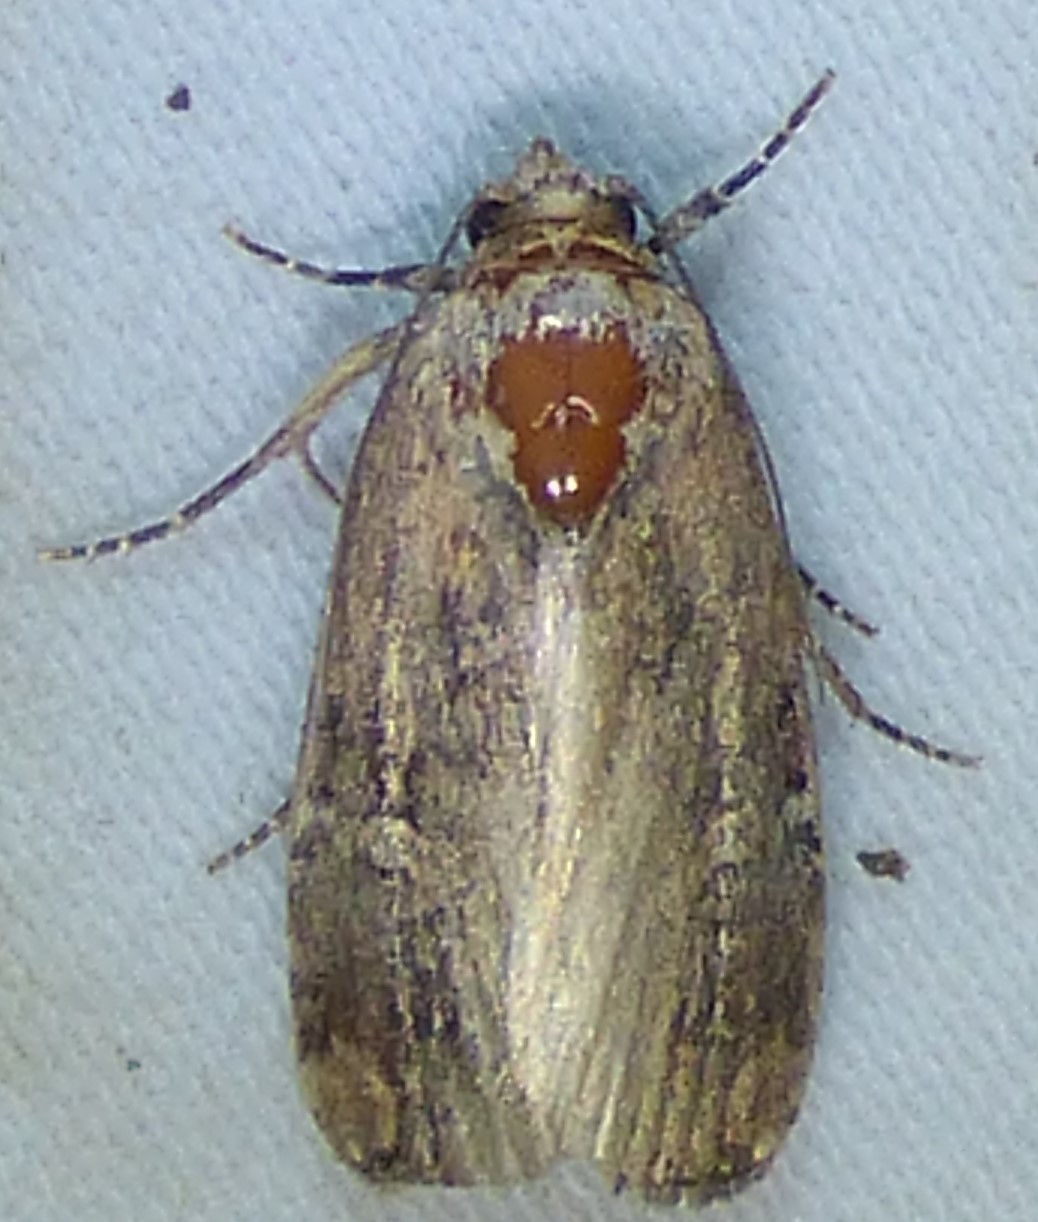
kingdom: Animalia
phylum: Arthropoda
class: Insecta
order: Lepidoptera
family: Noctuidae
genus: Elaphria
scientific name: Elaphria chalcedonia
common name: Chalcedony midget
